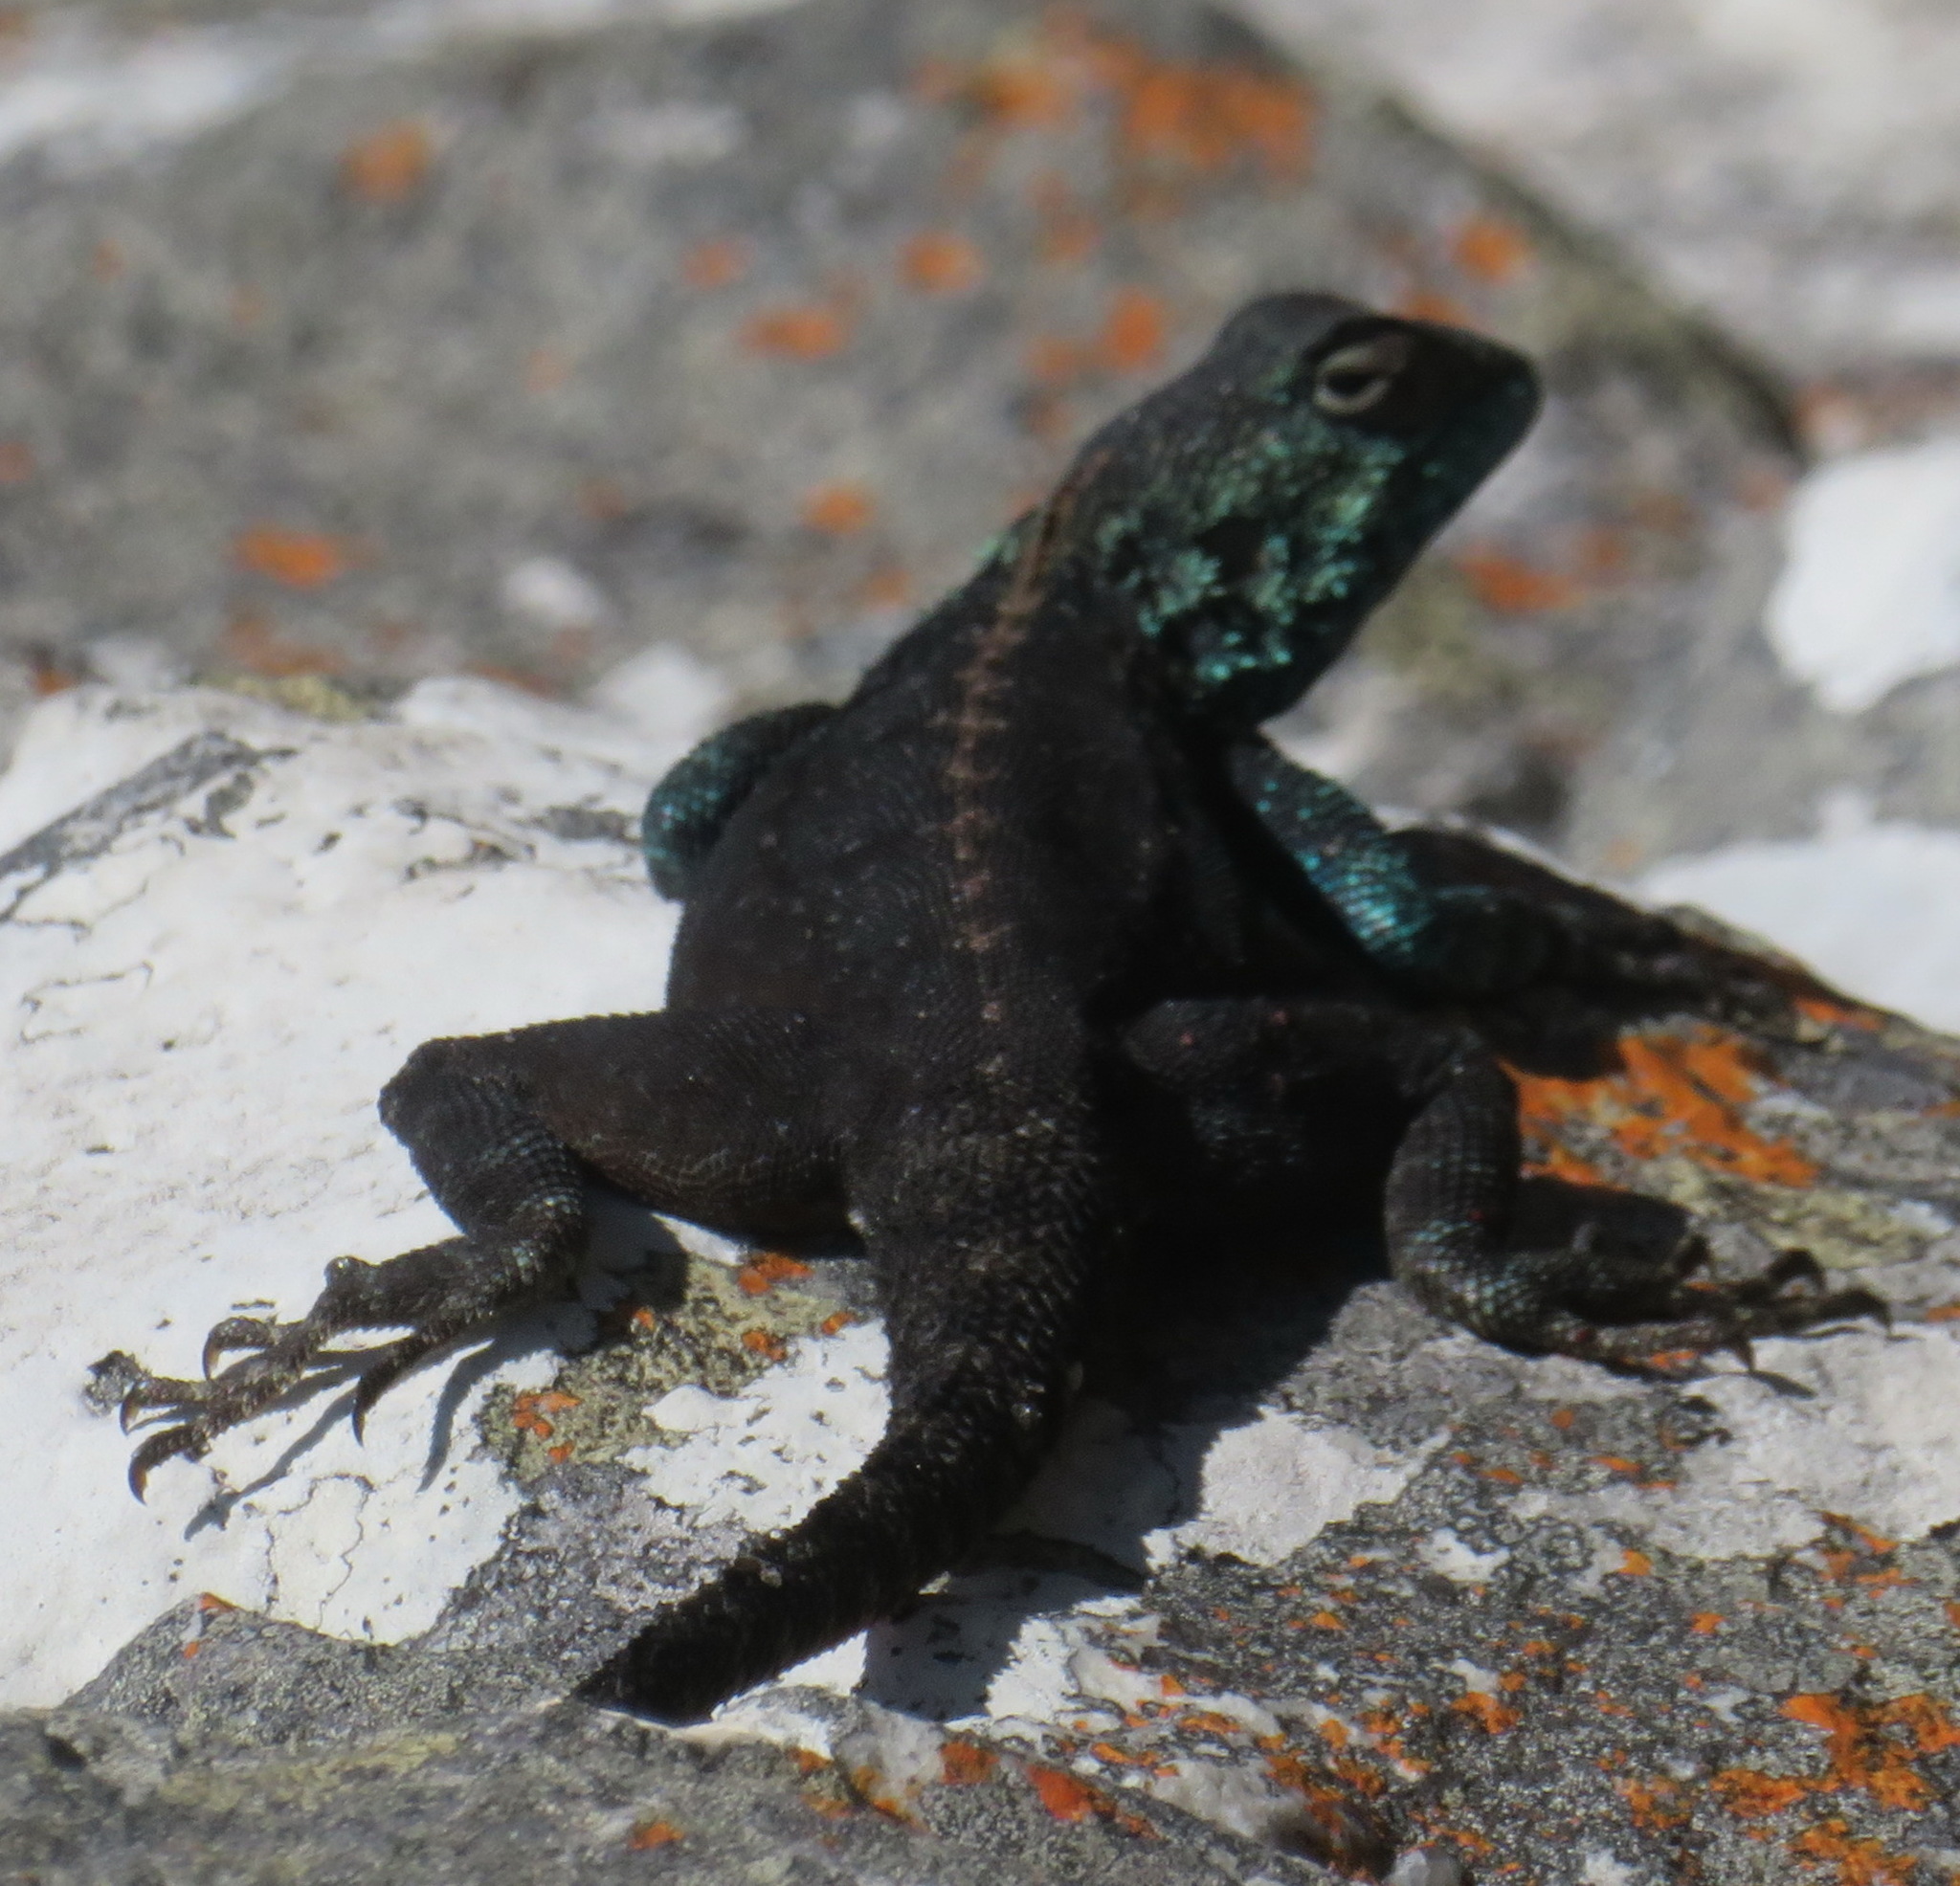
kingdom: Animalia
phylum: Chordata
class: Squamata
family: Agamidae
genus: Agama
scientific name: Agama atra
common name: Southern african rock agama
